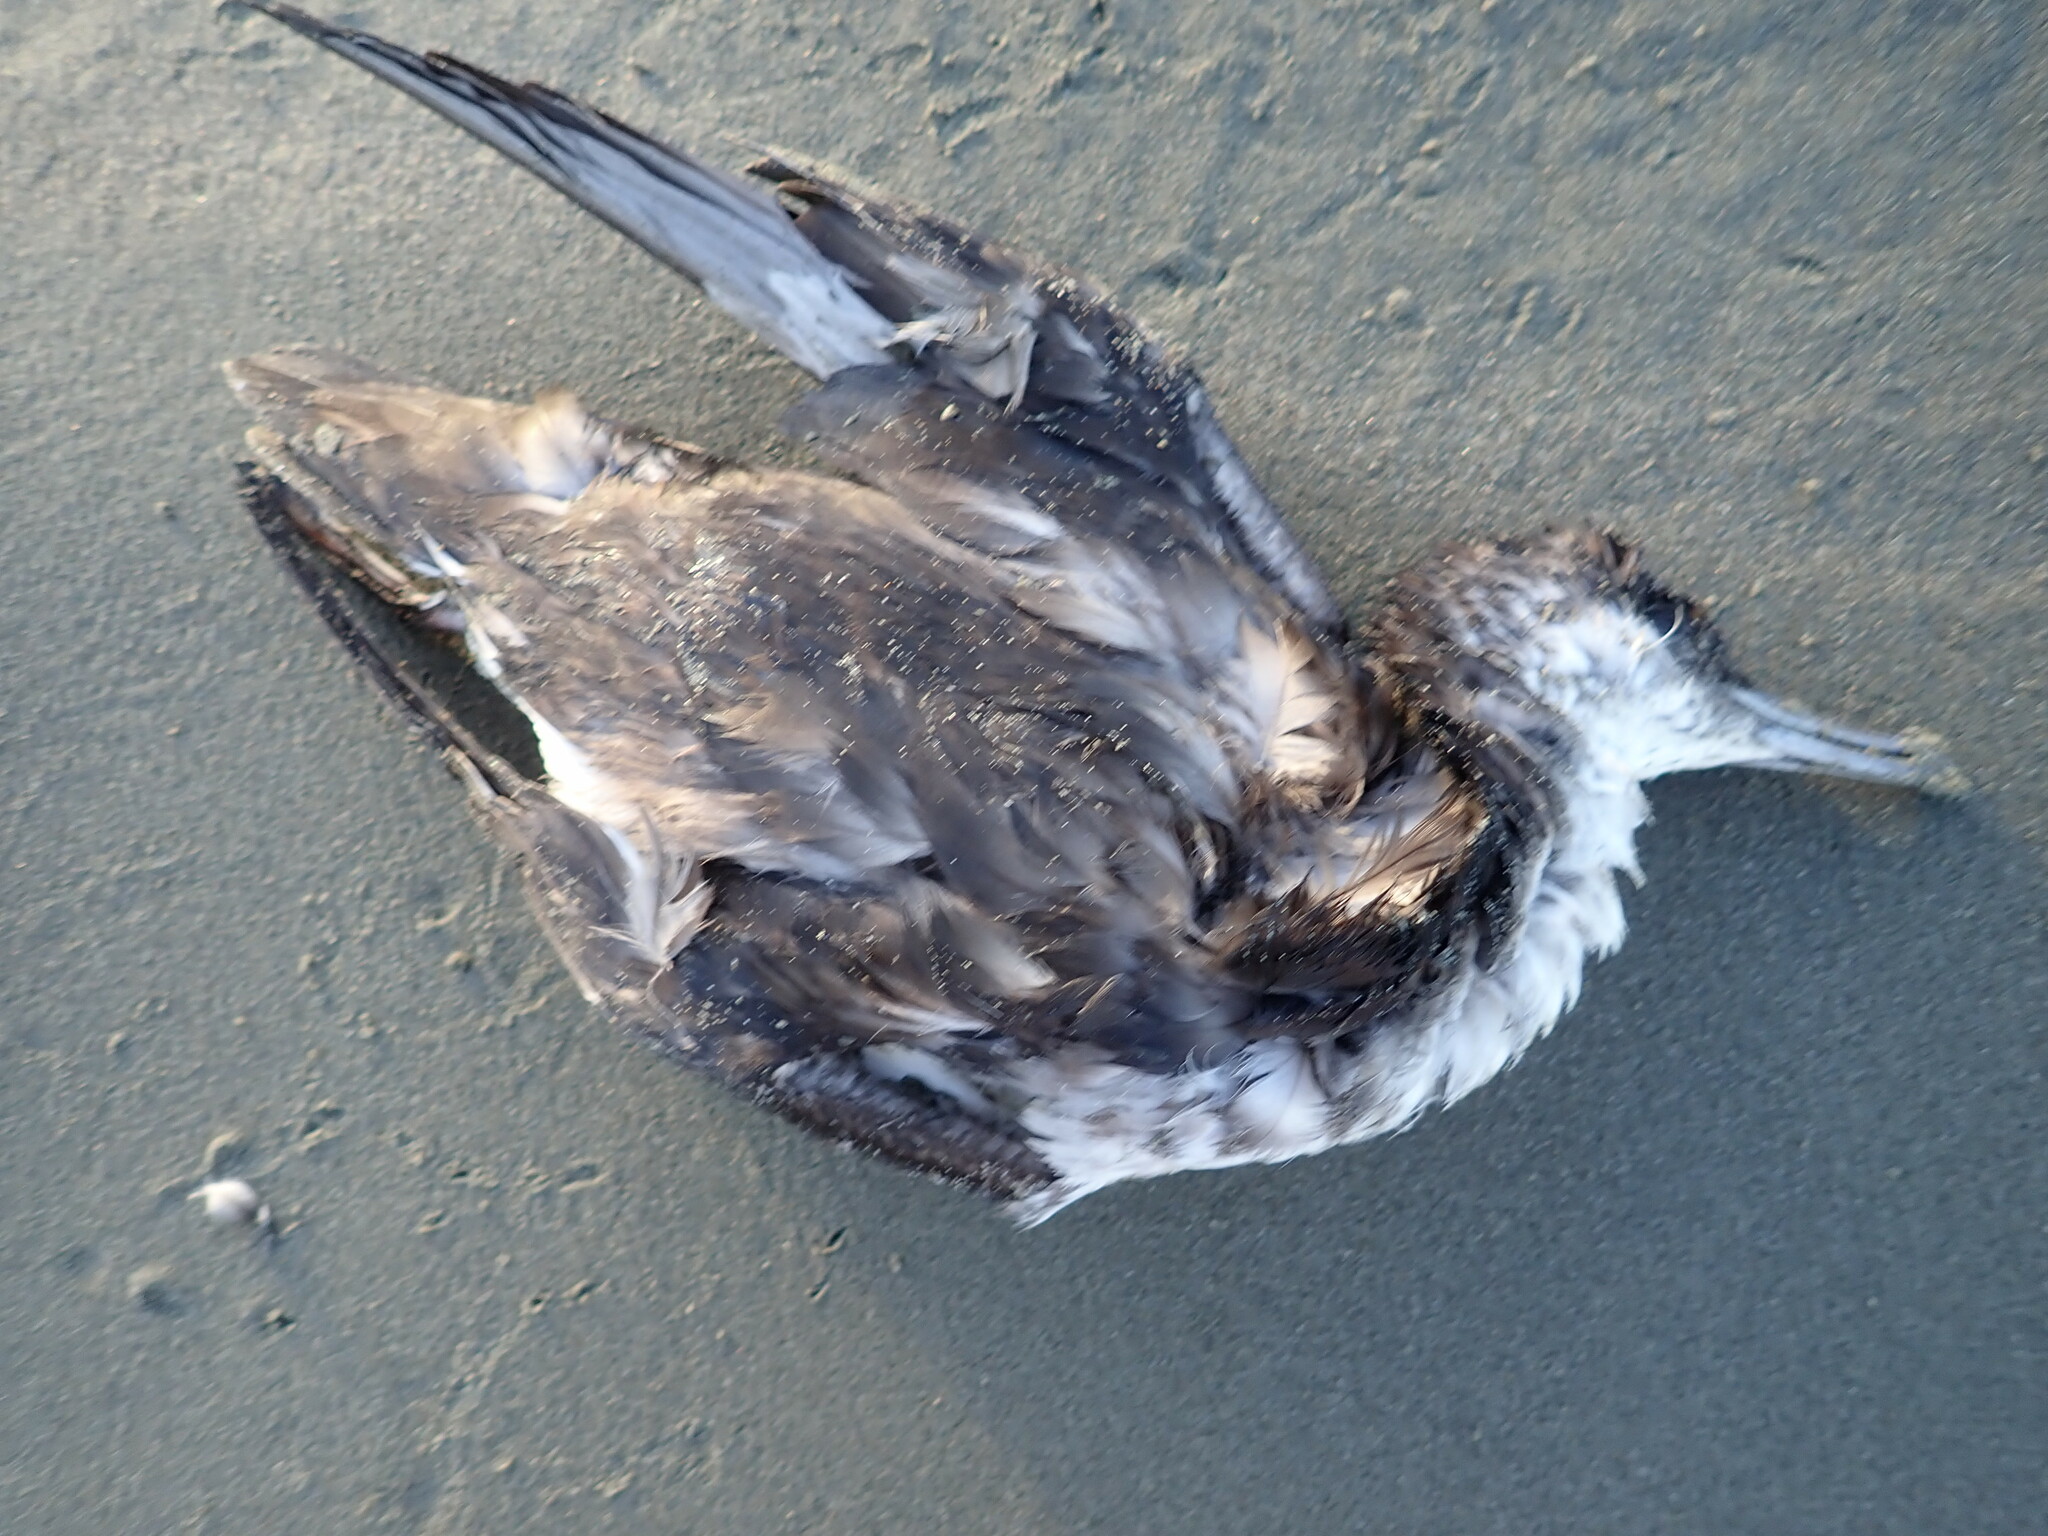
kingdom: Animalia
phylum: Chordata
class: Aves
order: Procellariiformes
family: Procellariidae
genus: Puffinus
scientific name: Puffinus gavia
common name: Fluttering shearwater
